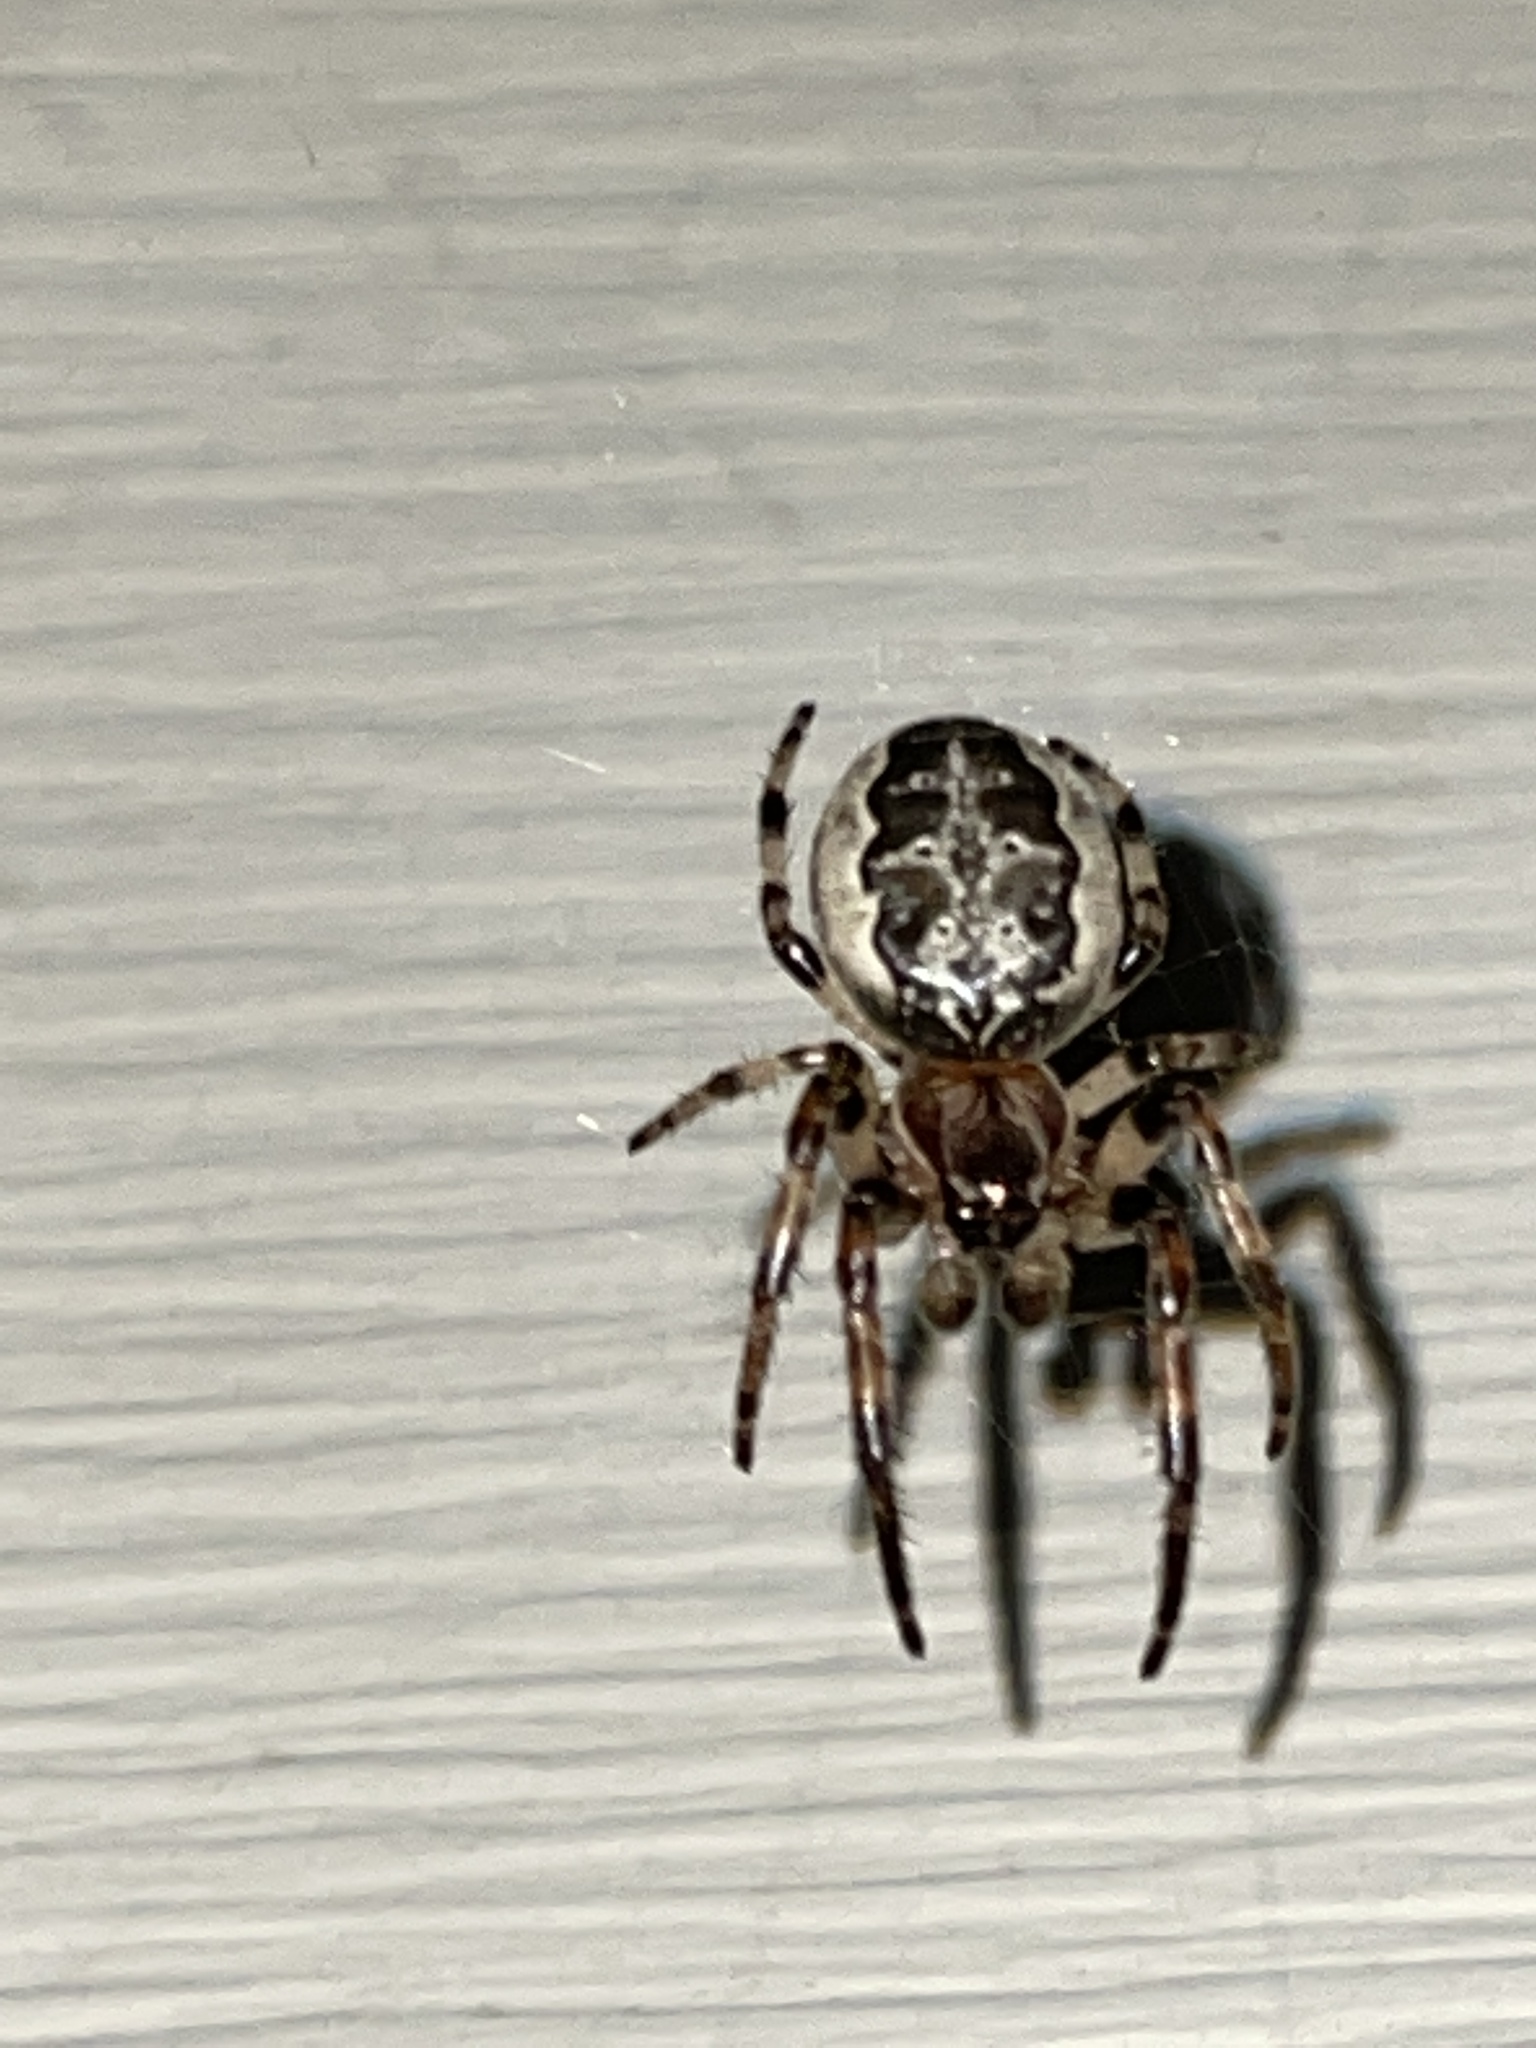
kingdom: Animalia
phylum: Arthropoda
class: Arachnida
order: Araneae
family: Araneidae
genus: Larinioides
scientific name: Larinioides cornutus
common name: Furrow orbweaver
